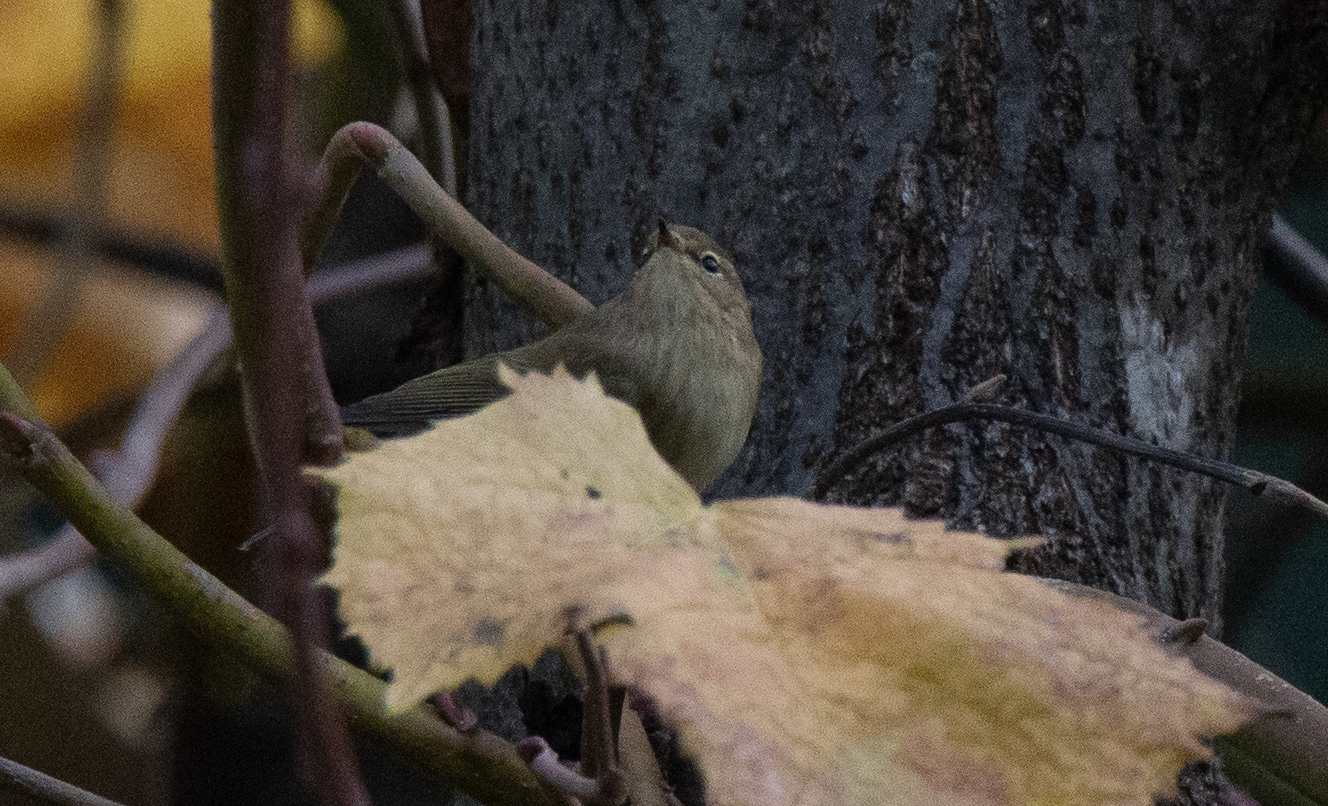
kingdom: Animalia
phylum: Chordata
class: Aves
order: Passeriformes
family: Phylloscopidae
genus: Phylloscopus
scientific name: Phylloscopus collybita
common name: Common chiffchaff
